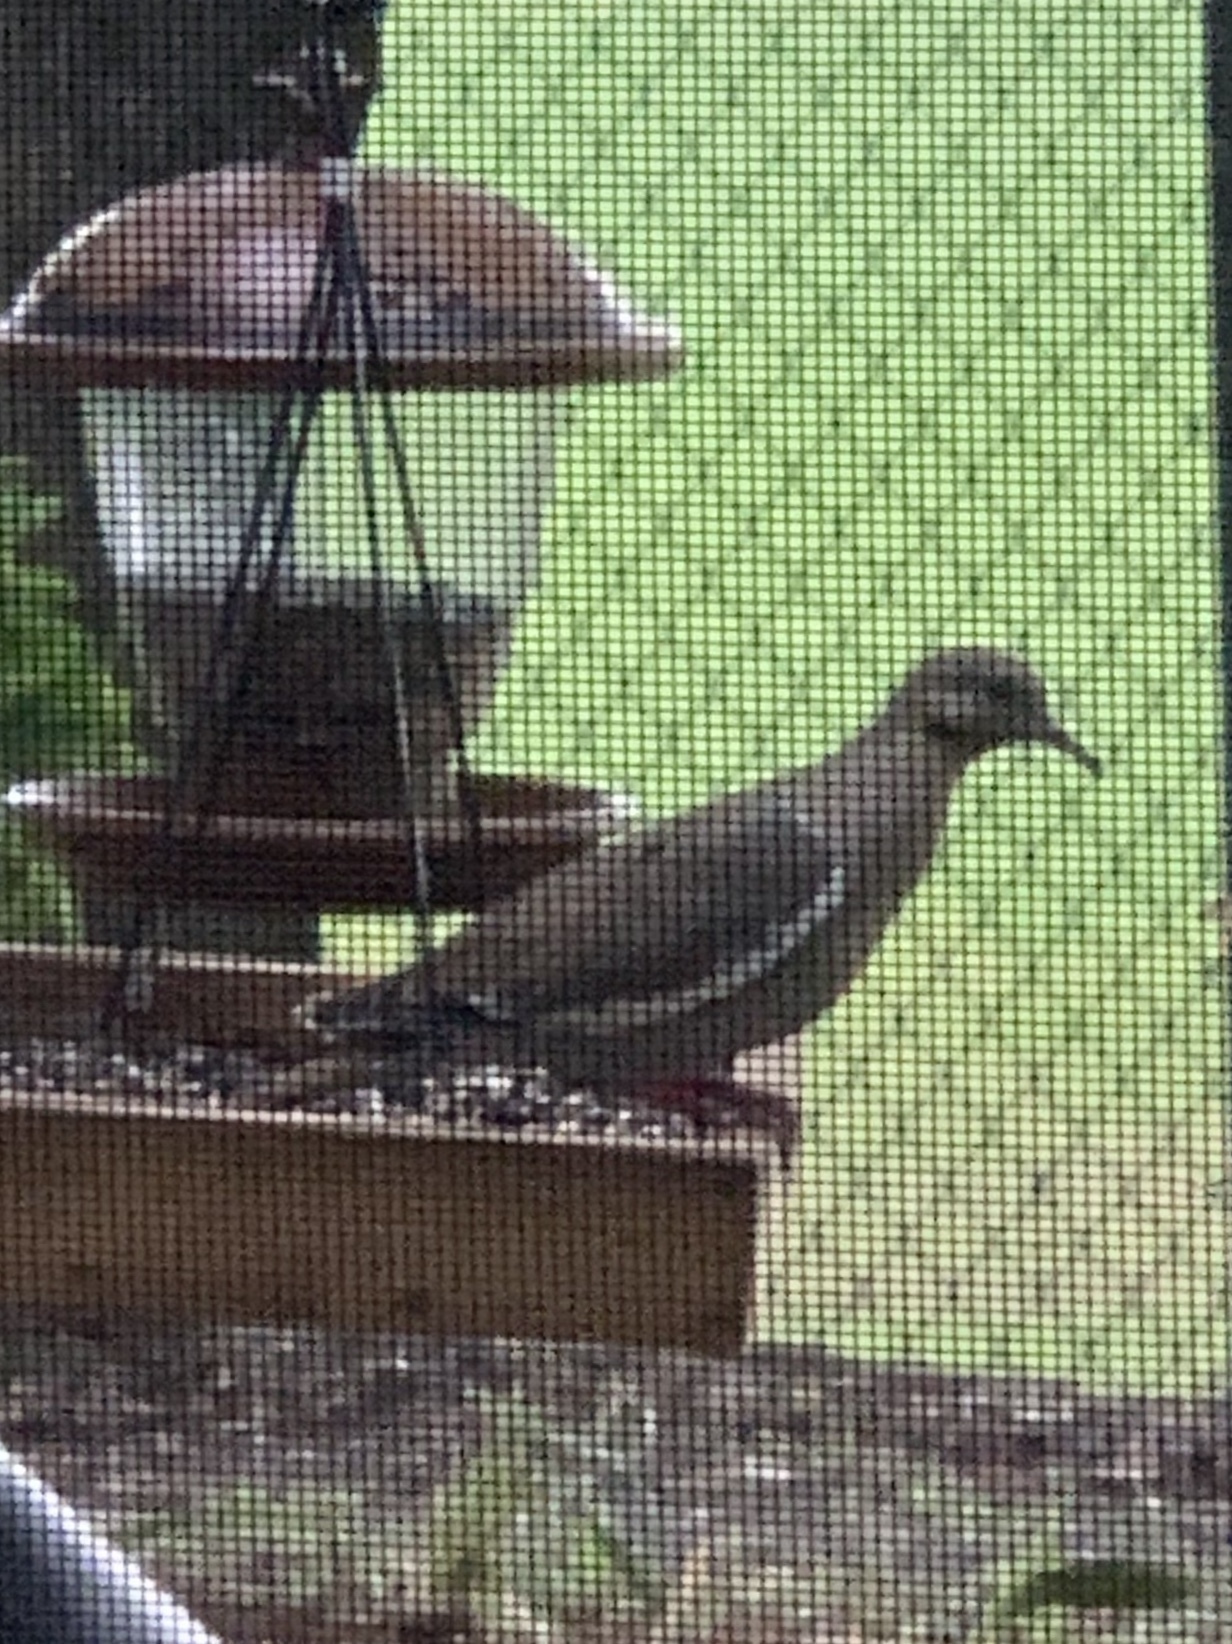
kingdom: Animalia
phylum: Chordata
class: Aves
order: Columbiformes
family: Columbidae
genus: Zenaida
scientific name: Zenaida asiatica
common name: White-winged dove
